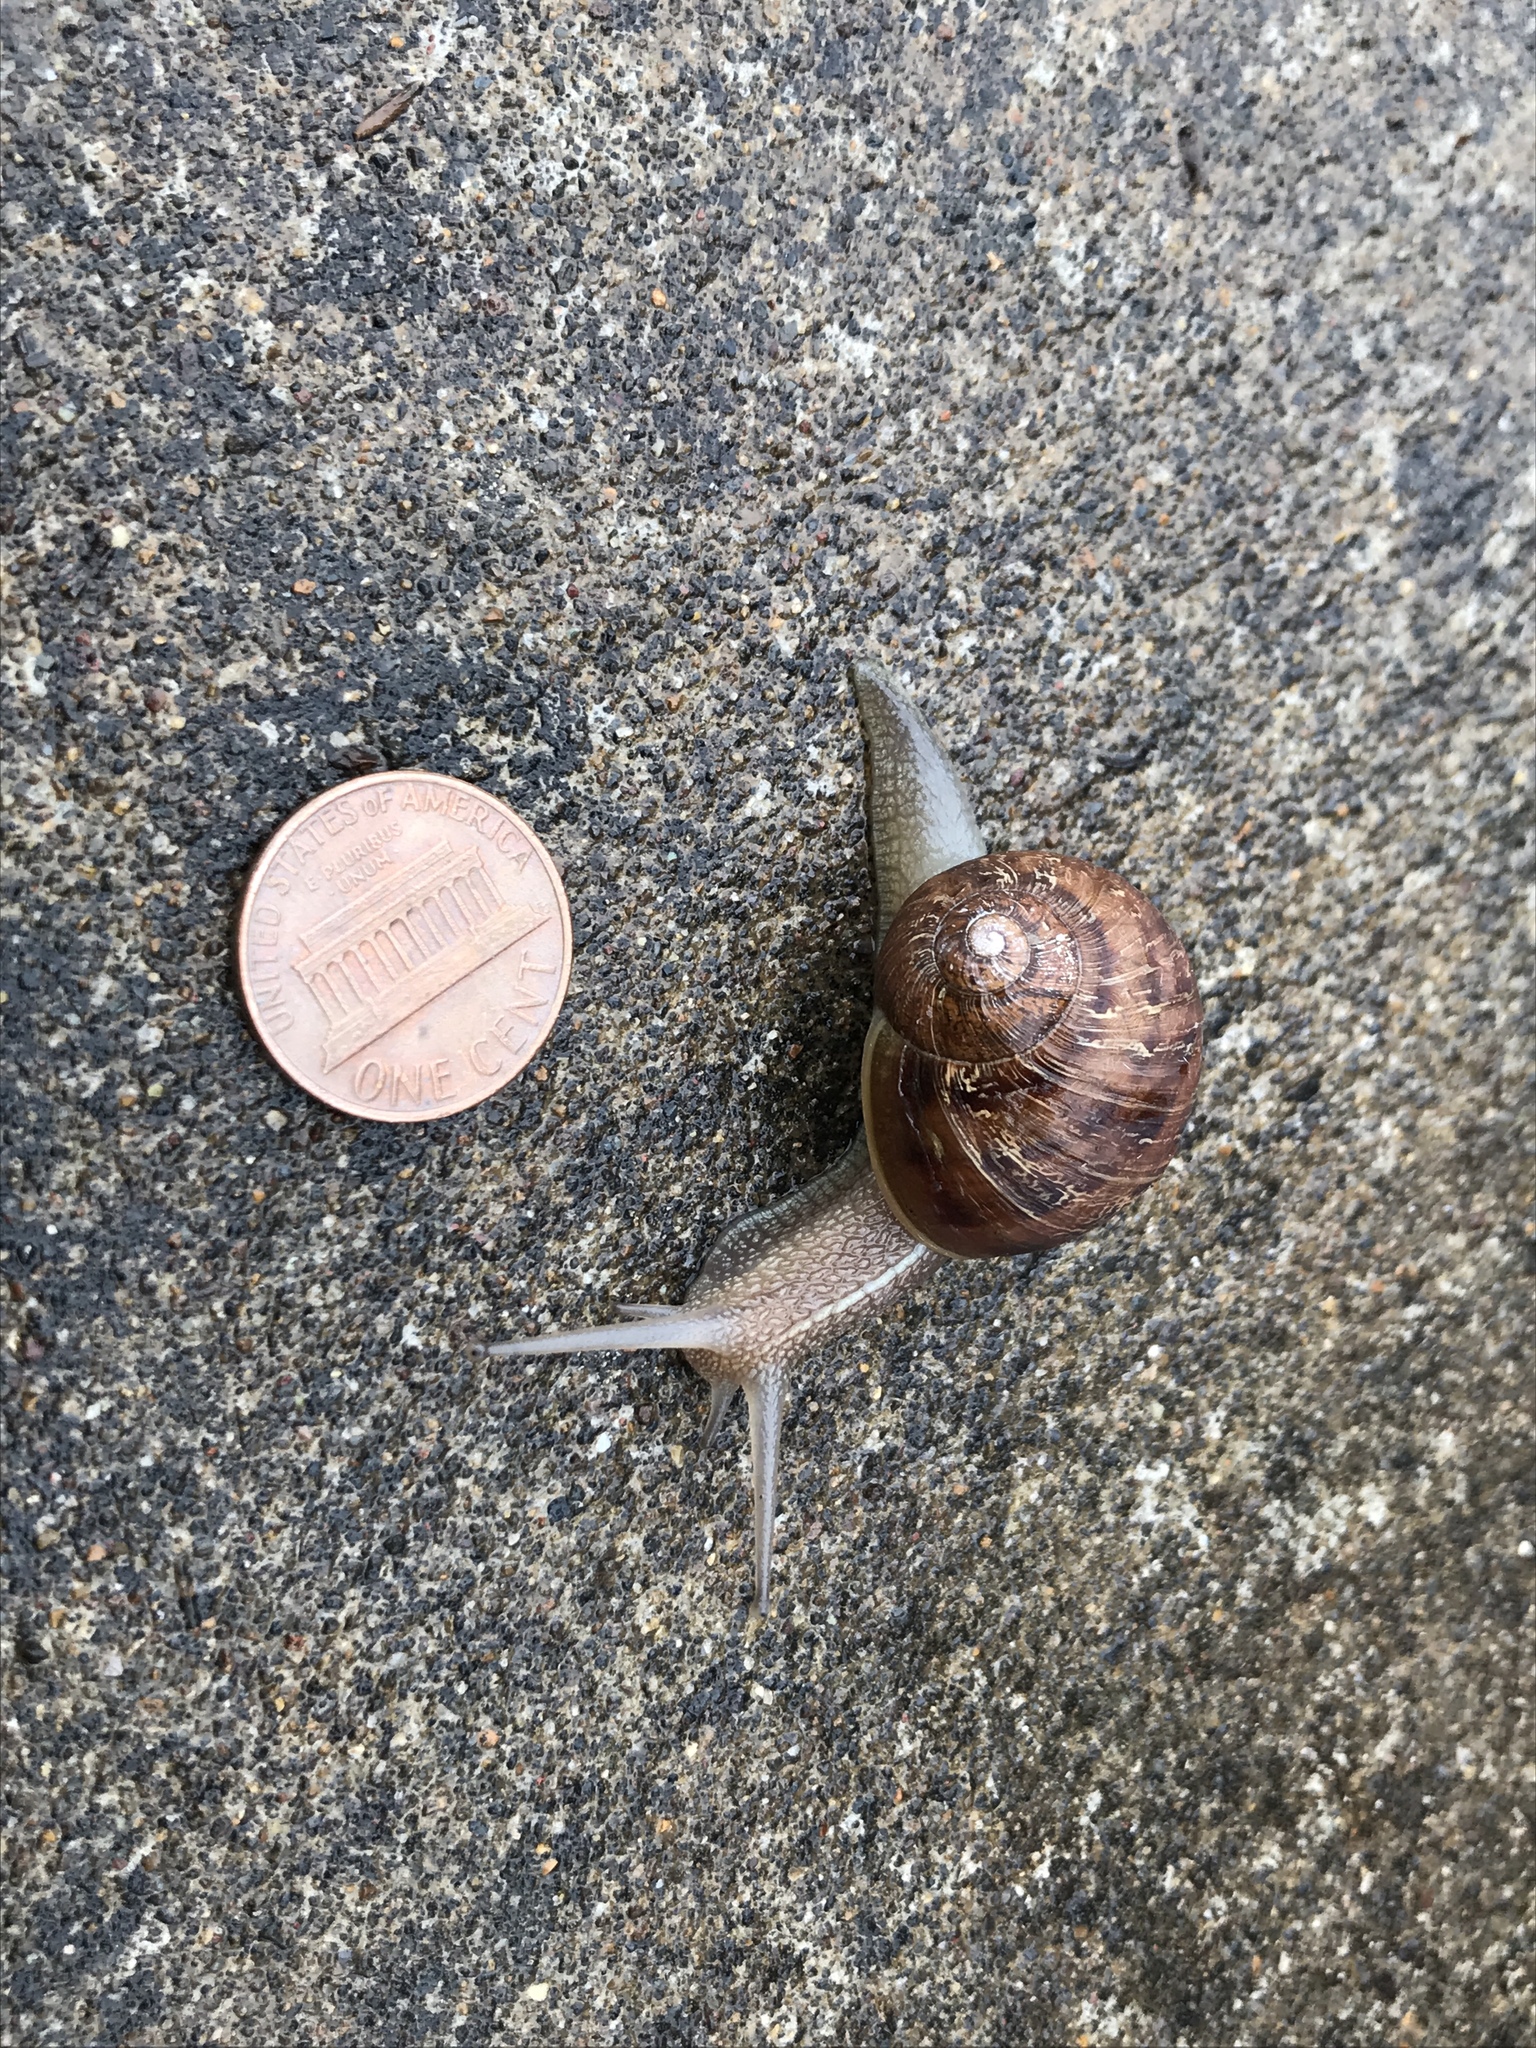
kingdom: Animalia
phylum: Mollusca
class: Gastropoda
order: Stylommatophora
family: Helicidae
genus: Cornu
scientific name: Cornu aspersum
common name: Brown garden snail
